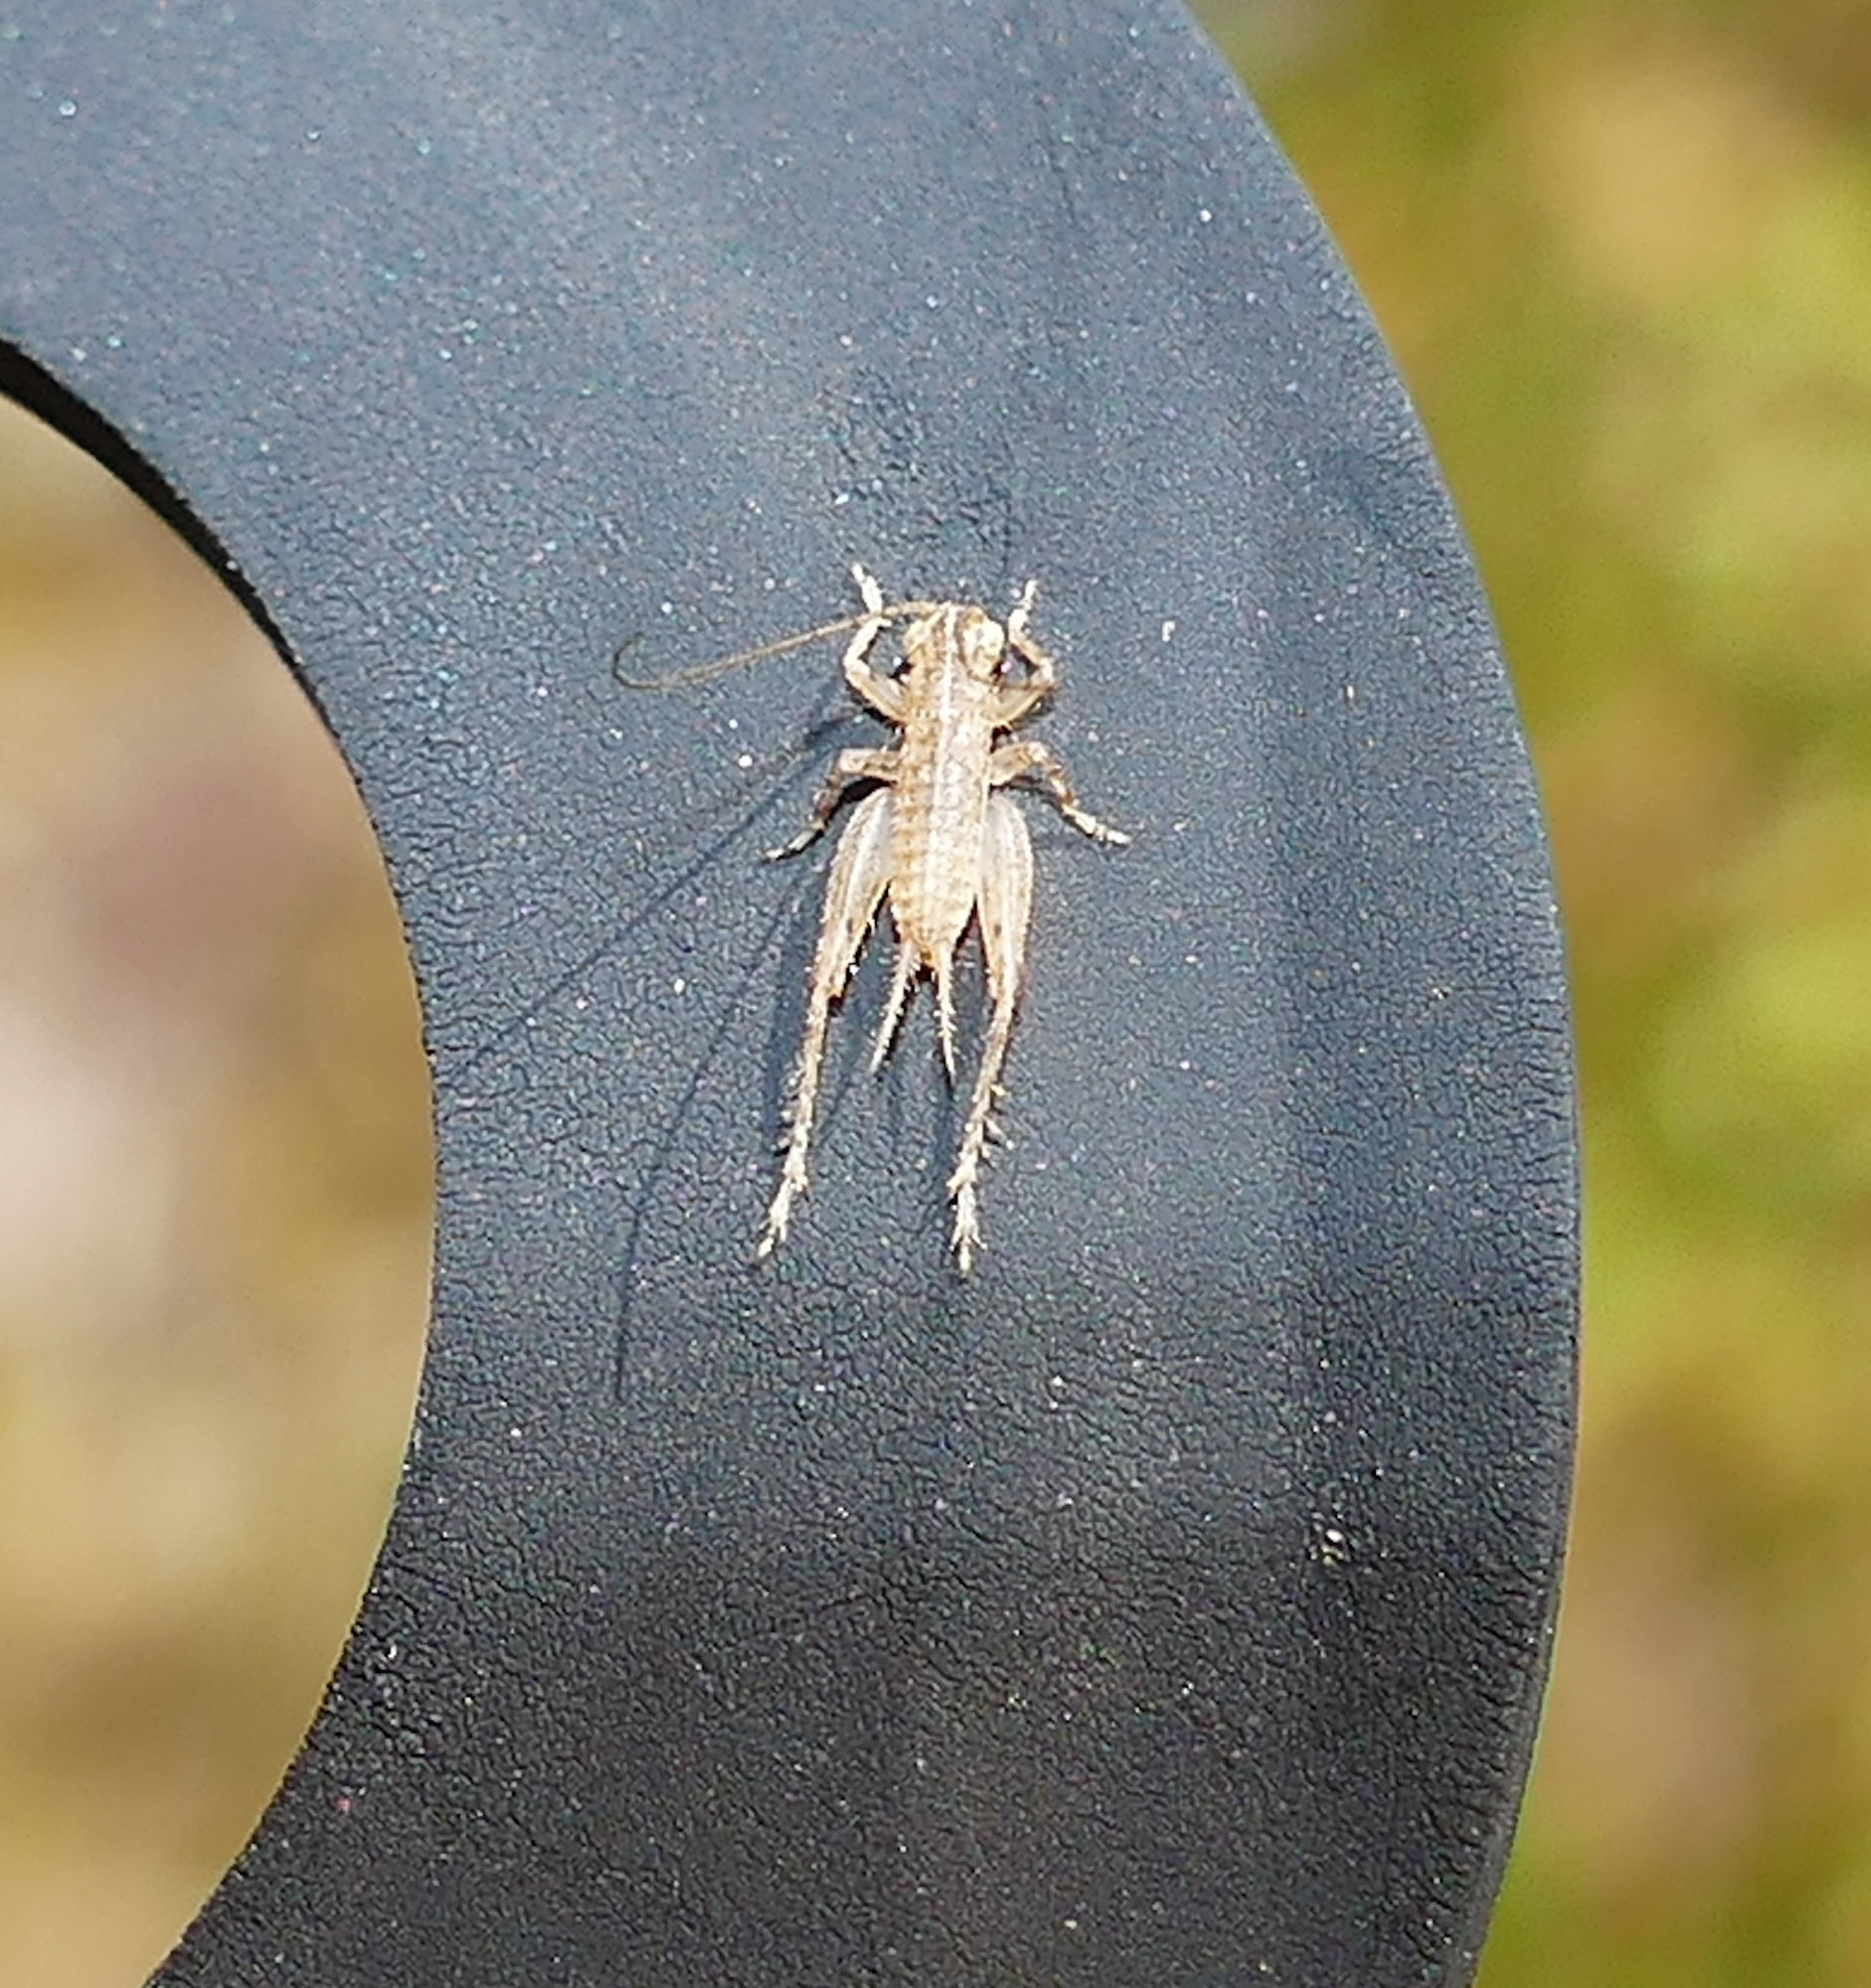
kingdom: Animalia
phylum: Arthropoda
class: Insecta
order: Orthoptera
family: Trigonidiidae
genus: Falcicula
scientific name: Falcicula hebardi
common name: Hebard's bush cricket
